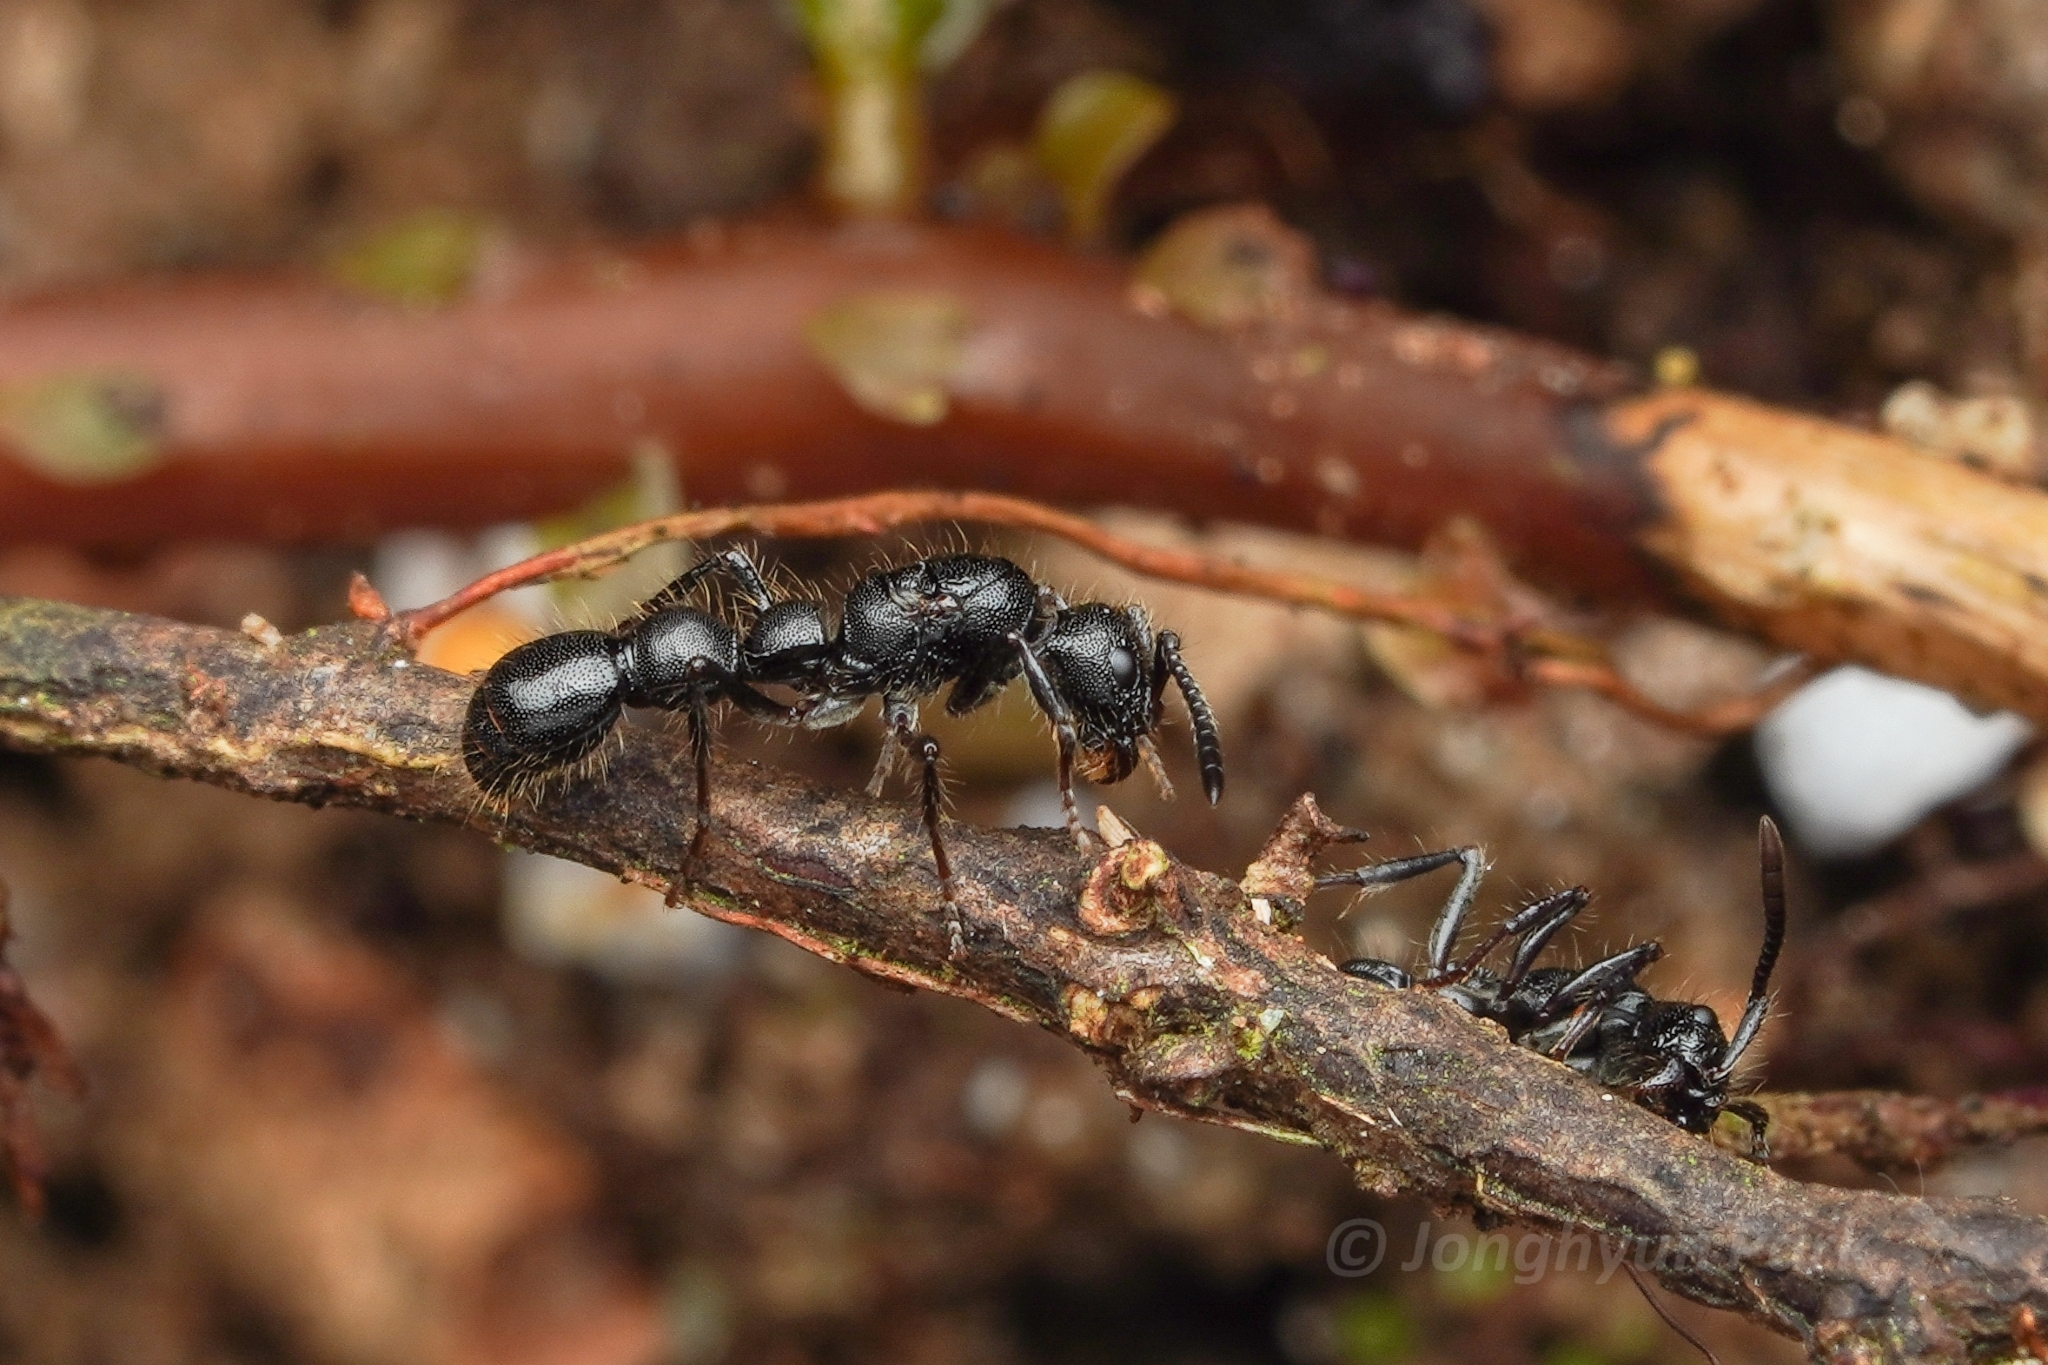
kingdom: Animalia
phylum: Arthropoda
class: Insecta
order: Hymenoptera
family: Formicidae
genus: Lioponera
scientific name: Lioponera Phyracaces suscitatus
